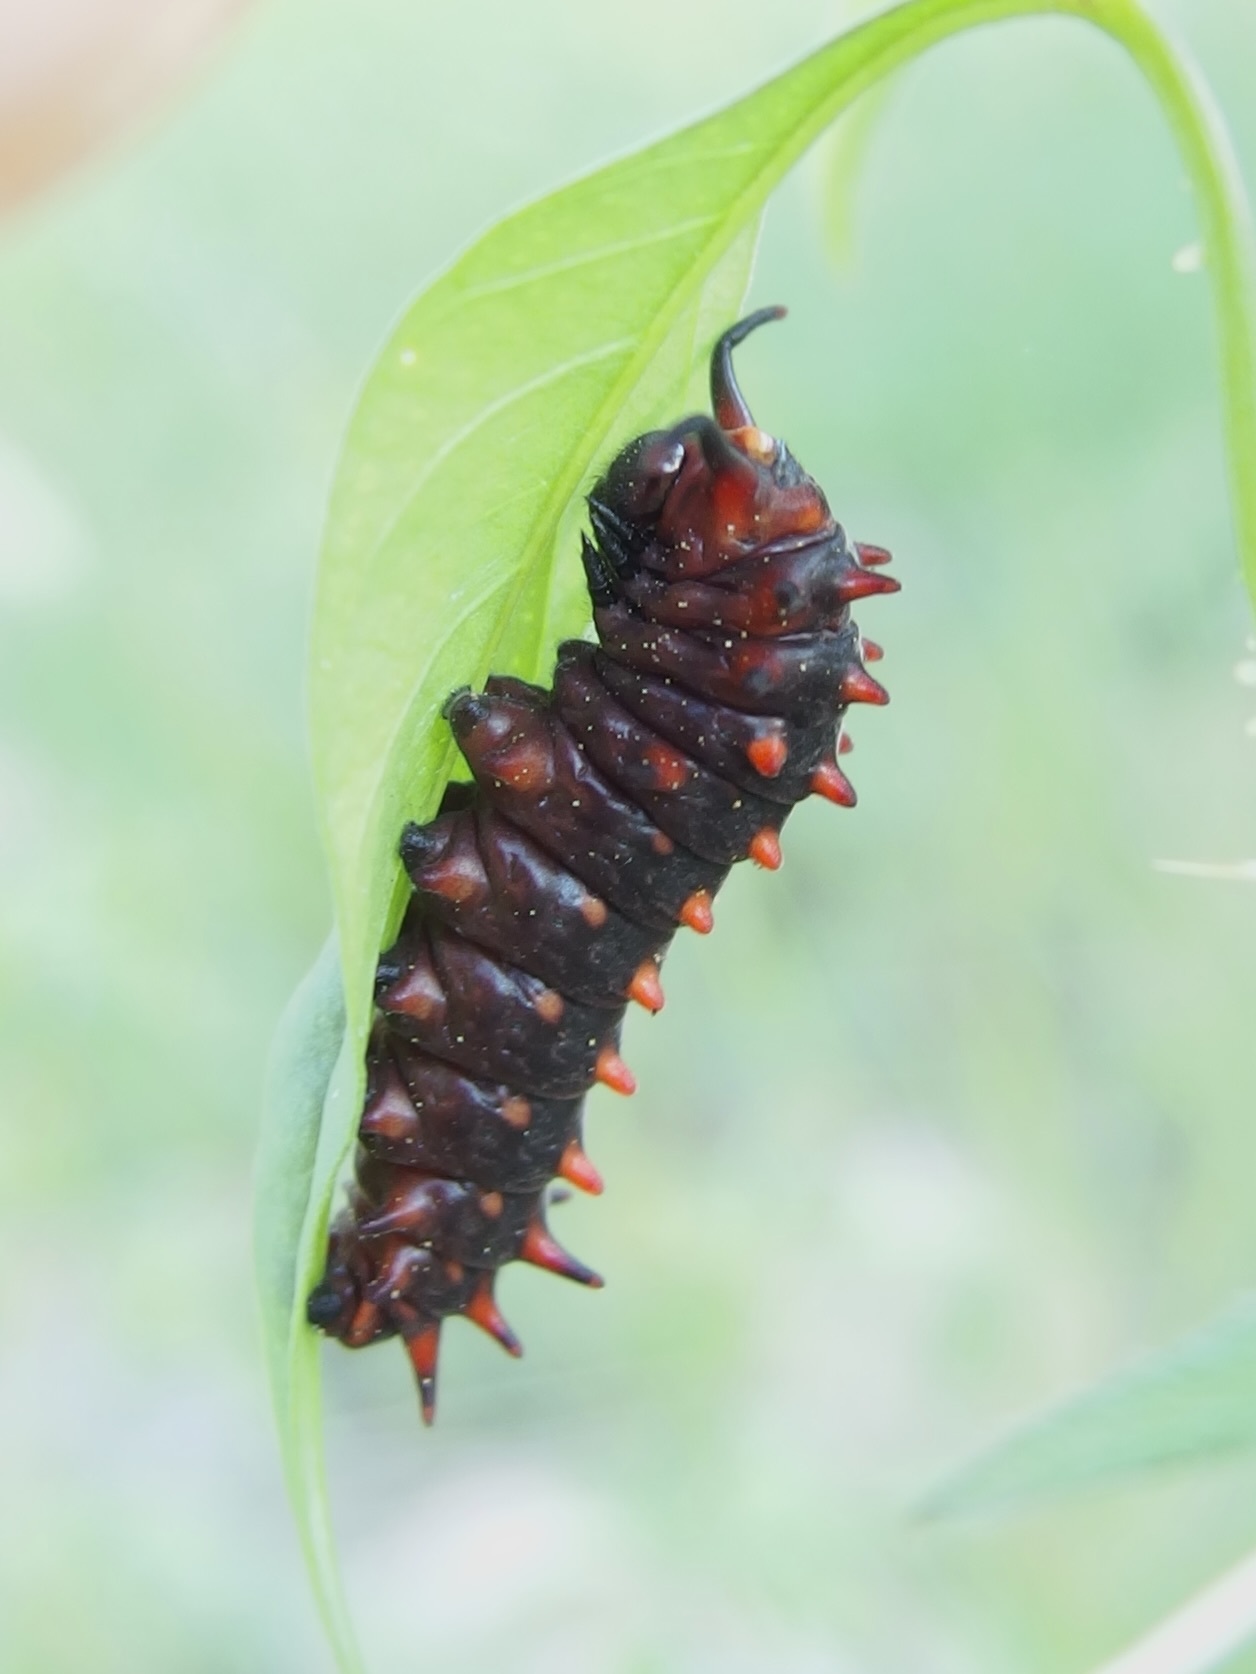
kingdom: Animalia
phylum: Arthropoda
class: Insecta
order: Lepidoptera
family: Papilionidae
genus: Battus
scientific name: Battus philenor
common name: Pipevine swallowtail
